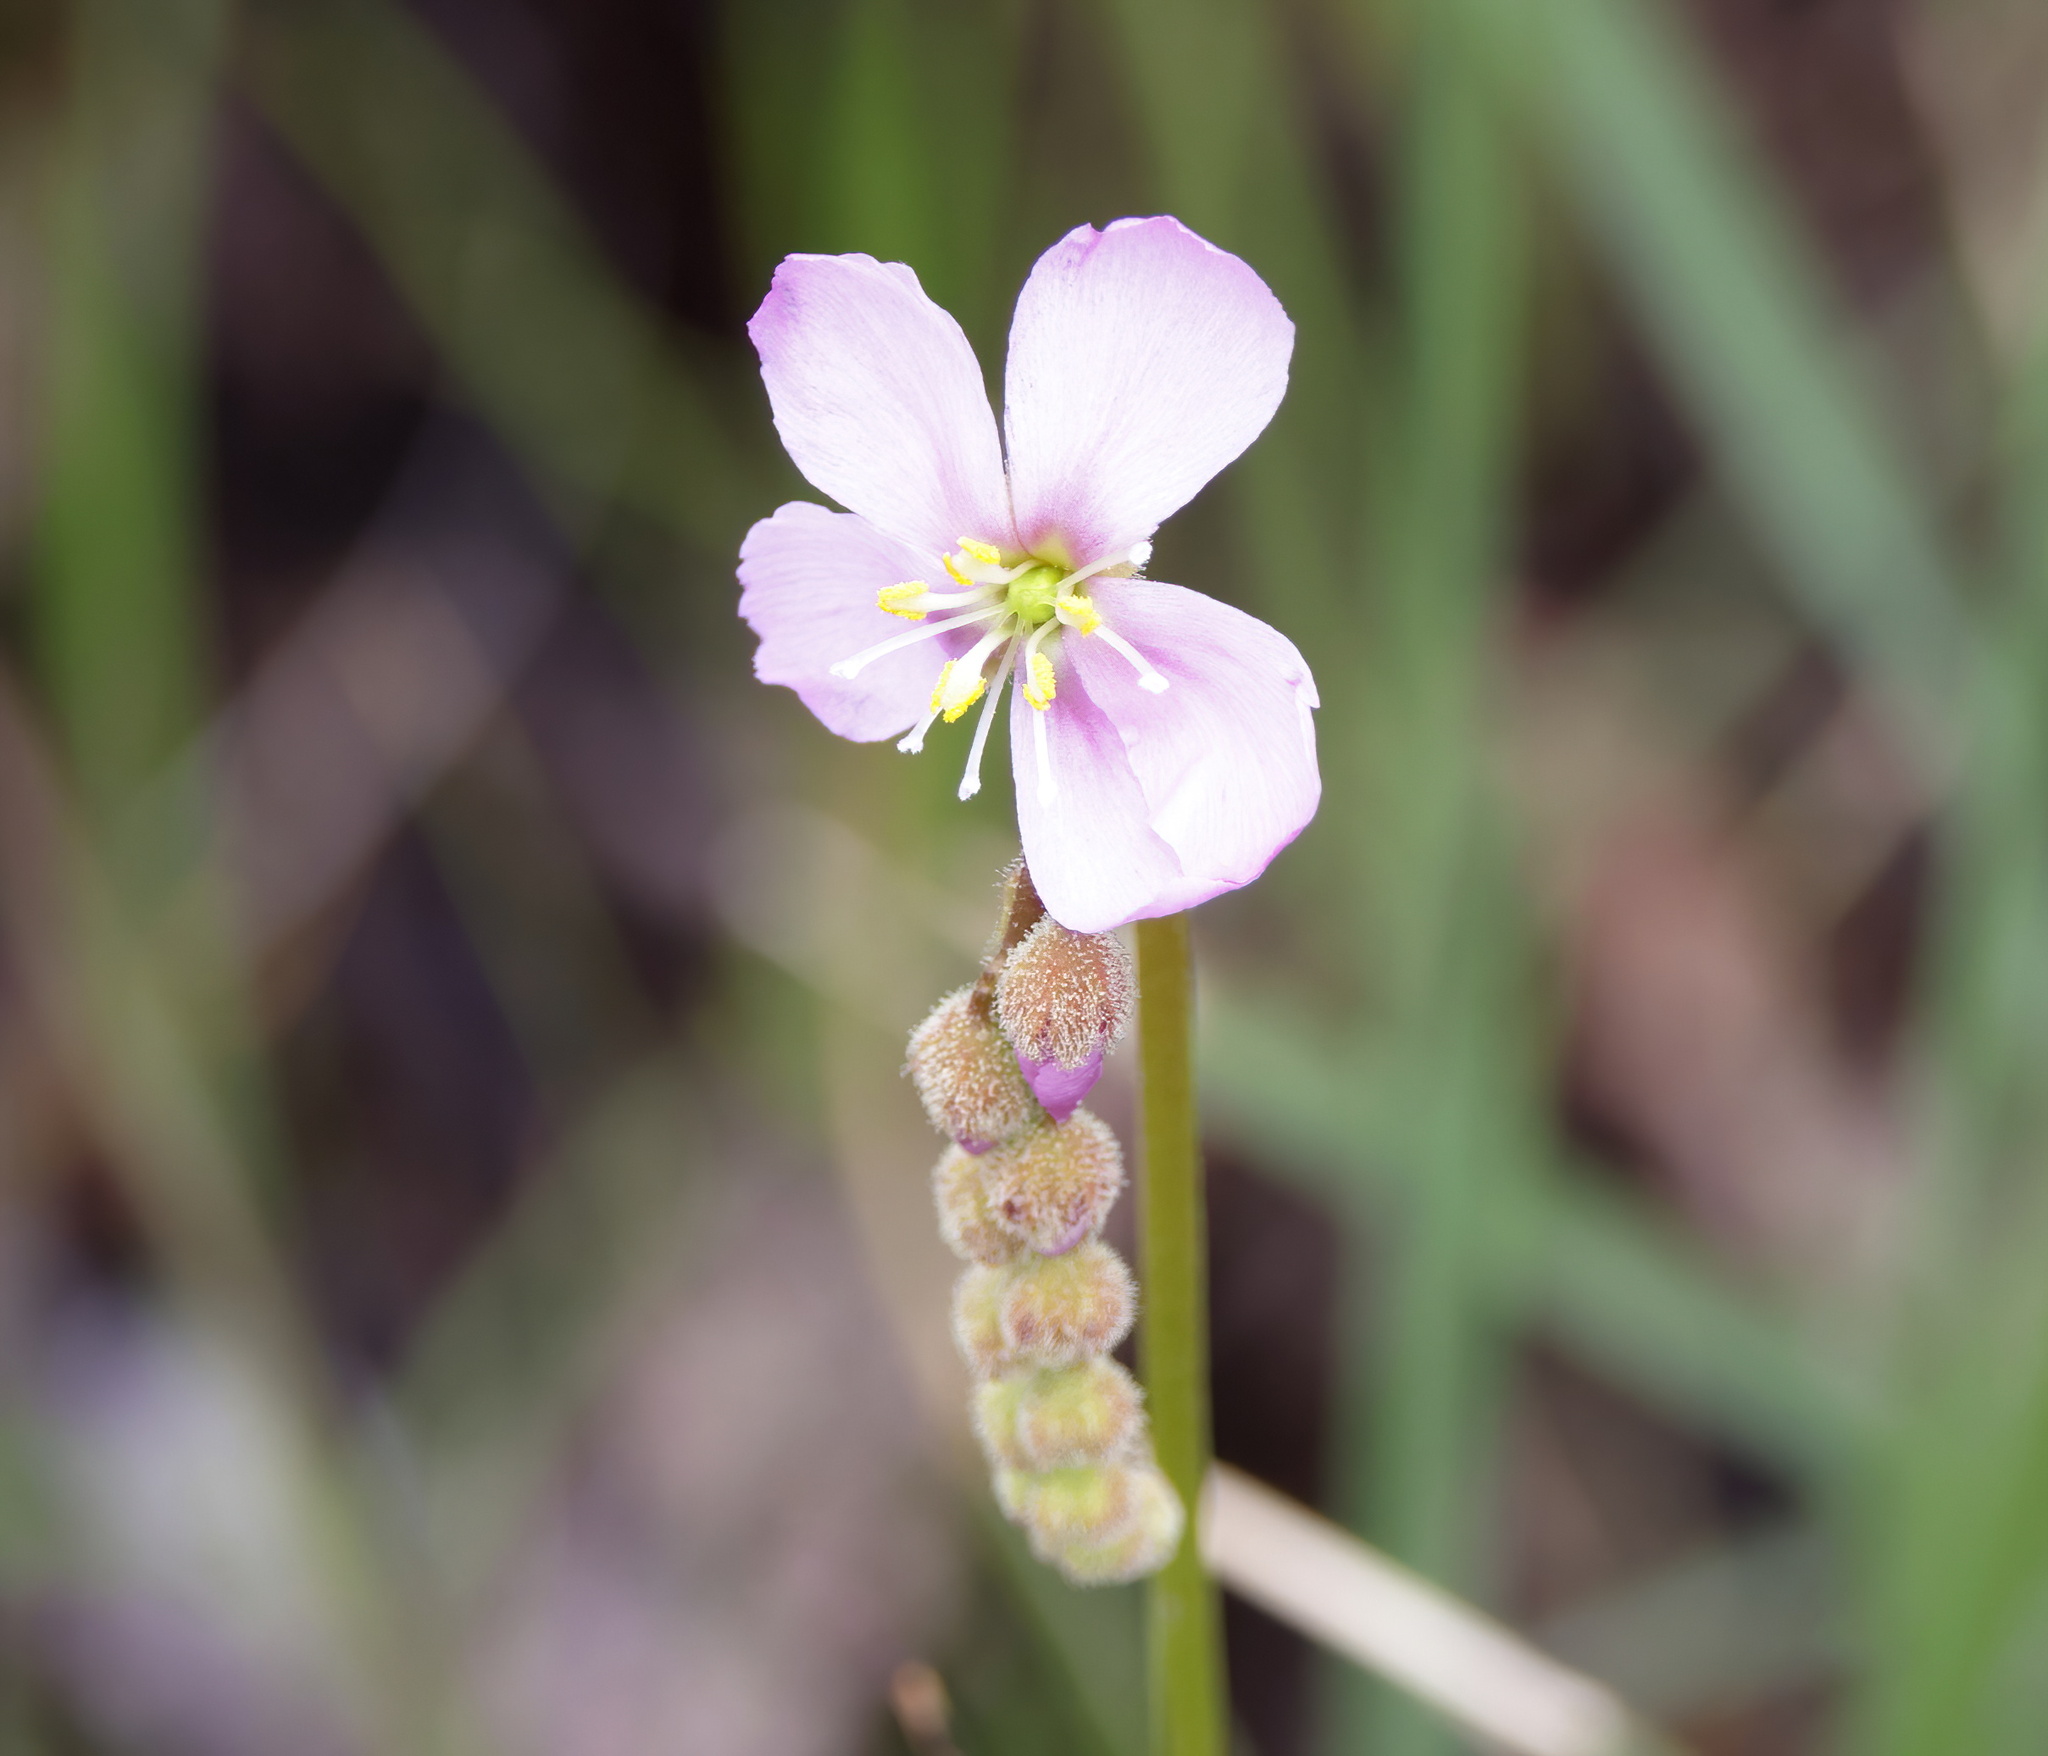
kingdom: Plantae
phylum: Tracheophyta
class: Magnoliopsida
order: Caryophyllales
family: Droseraceae
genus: Drosera
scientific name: Drosera filiformis
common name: Dew-thread
